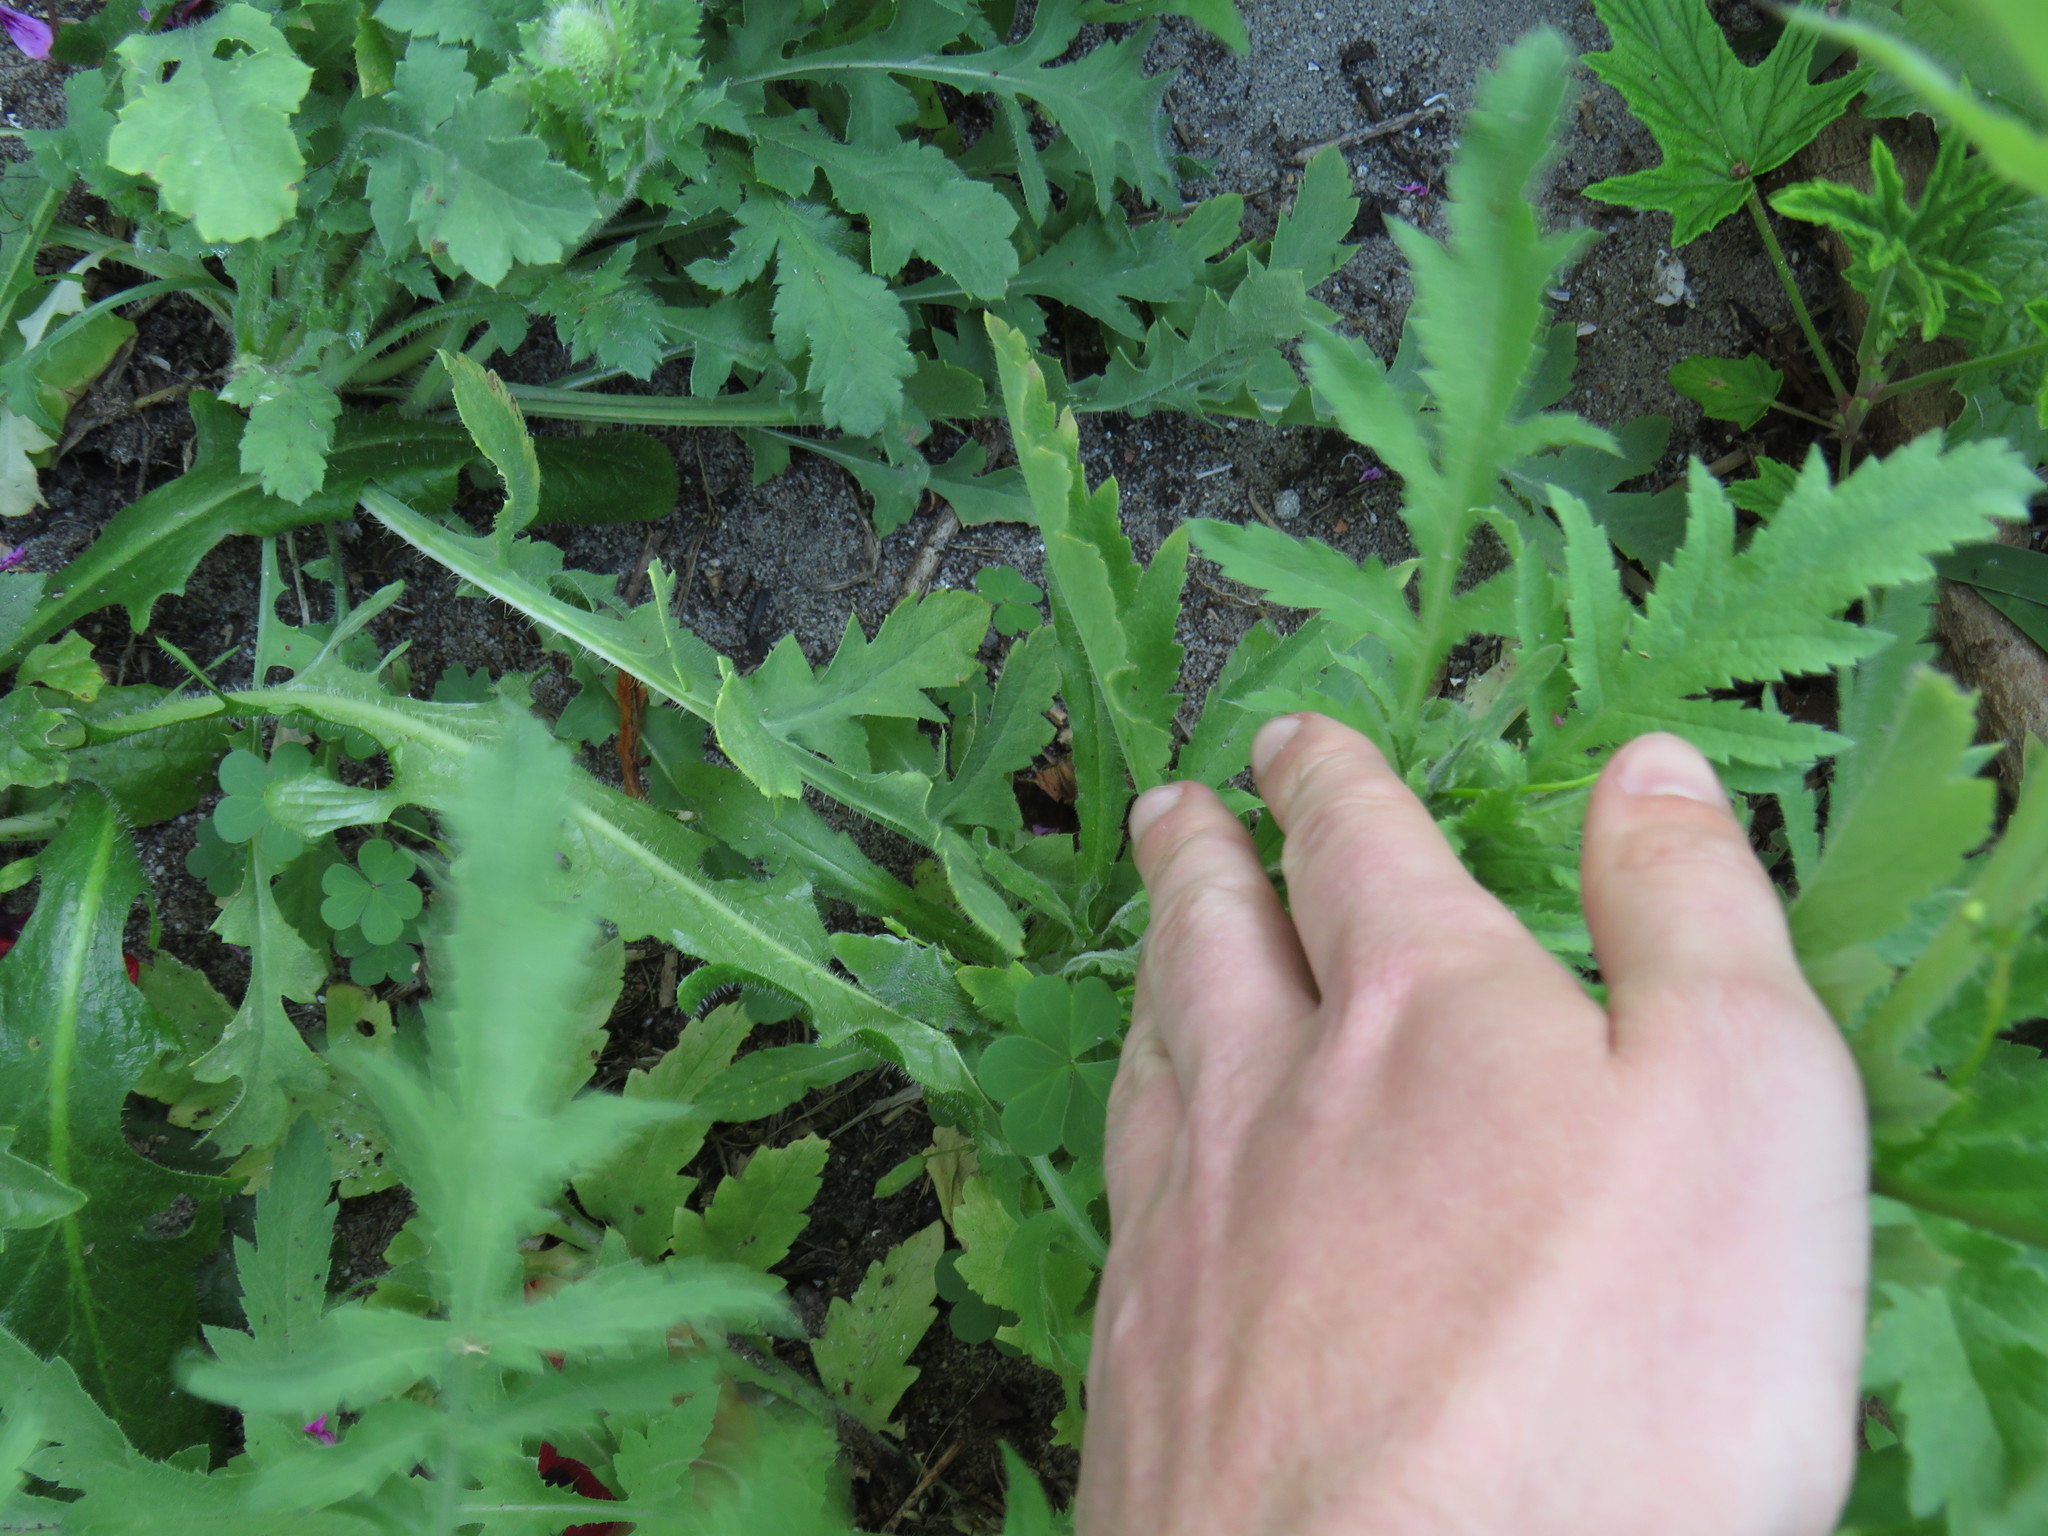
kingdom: Plantae
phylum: Tracheophyta
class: Magnoliopsida
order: Asterales
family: Campanulaceae
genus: Wahlenbergia
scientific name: Wahlenbergia androsacea
